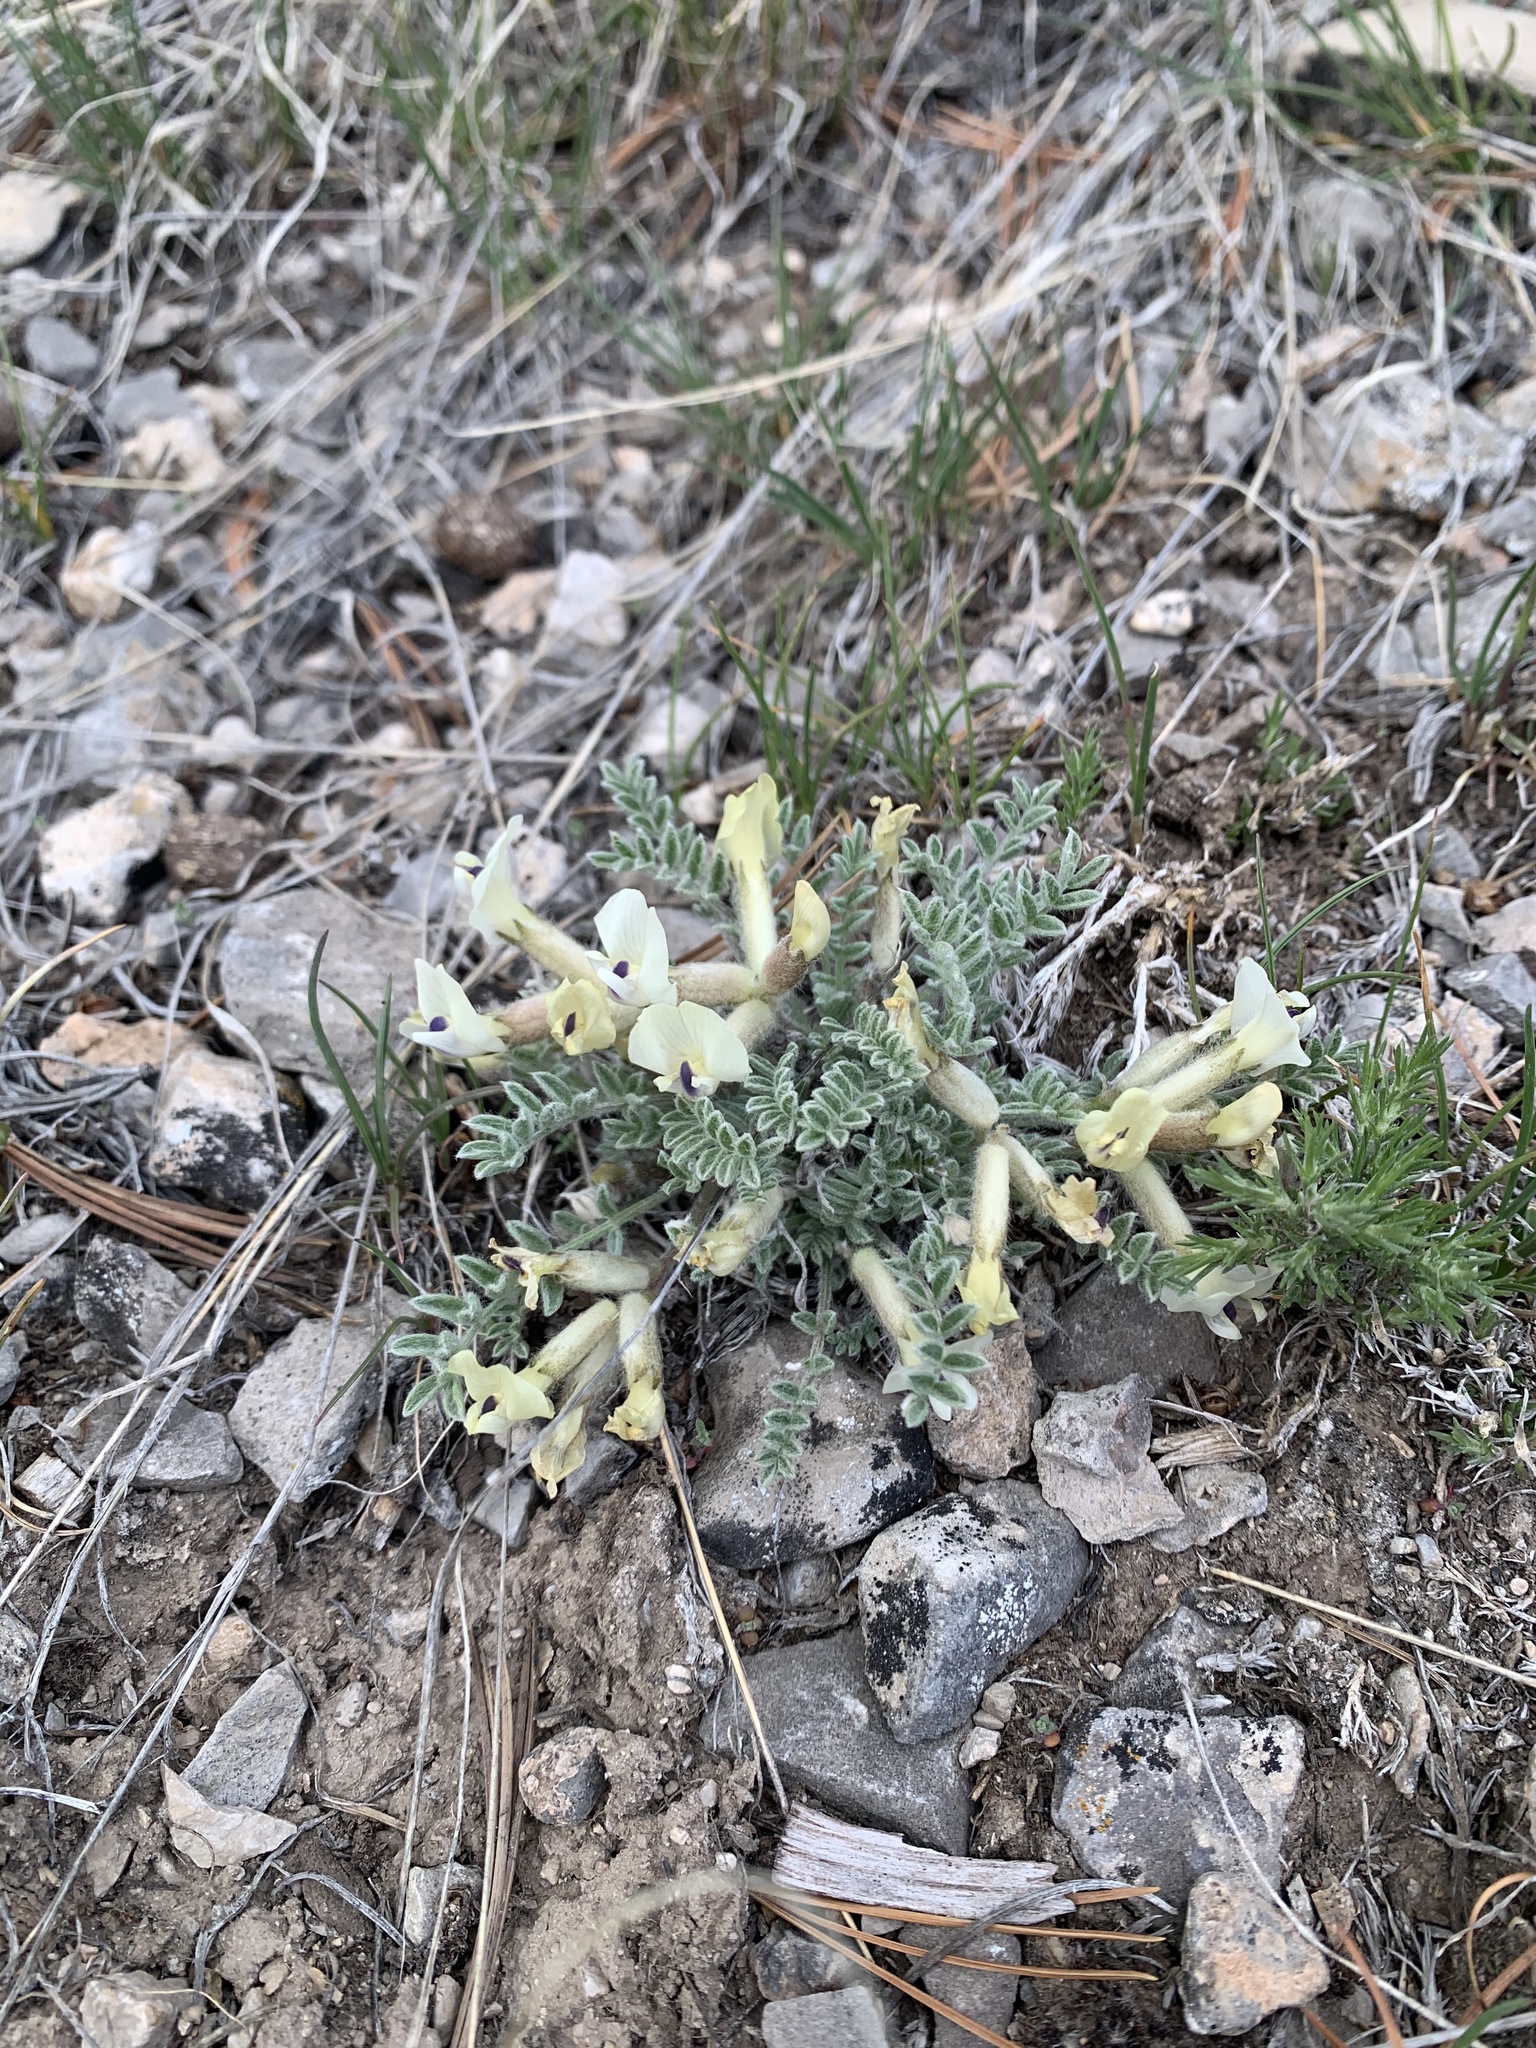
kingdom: Plantae
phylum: Tracheophyta
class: Magnoliopsida
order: Fabales
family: Fabaceae
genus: Astragalus
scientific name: Astragalus purshii
